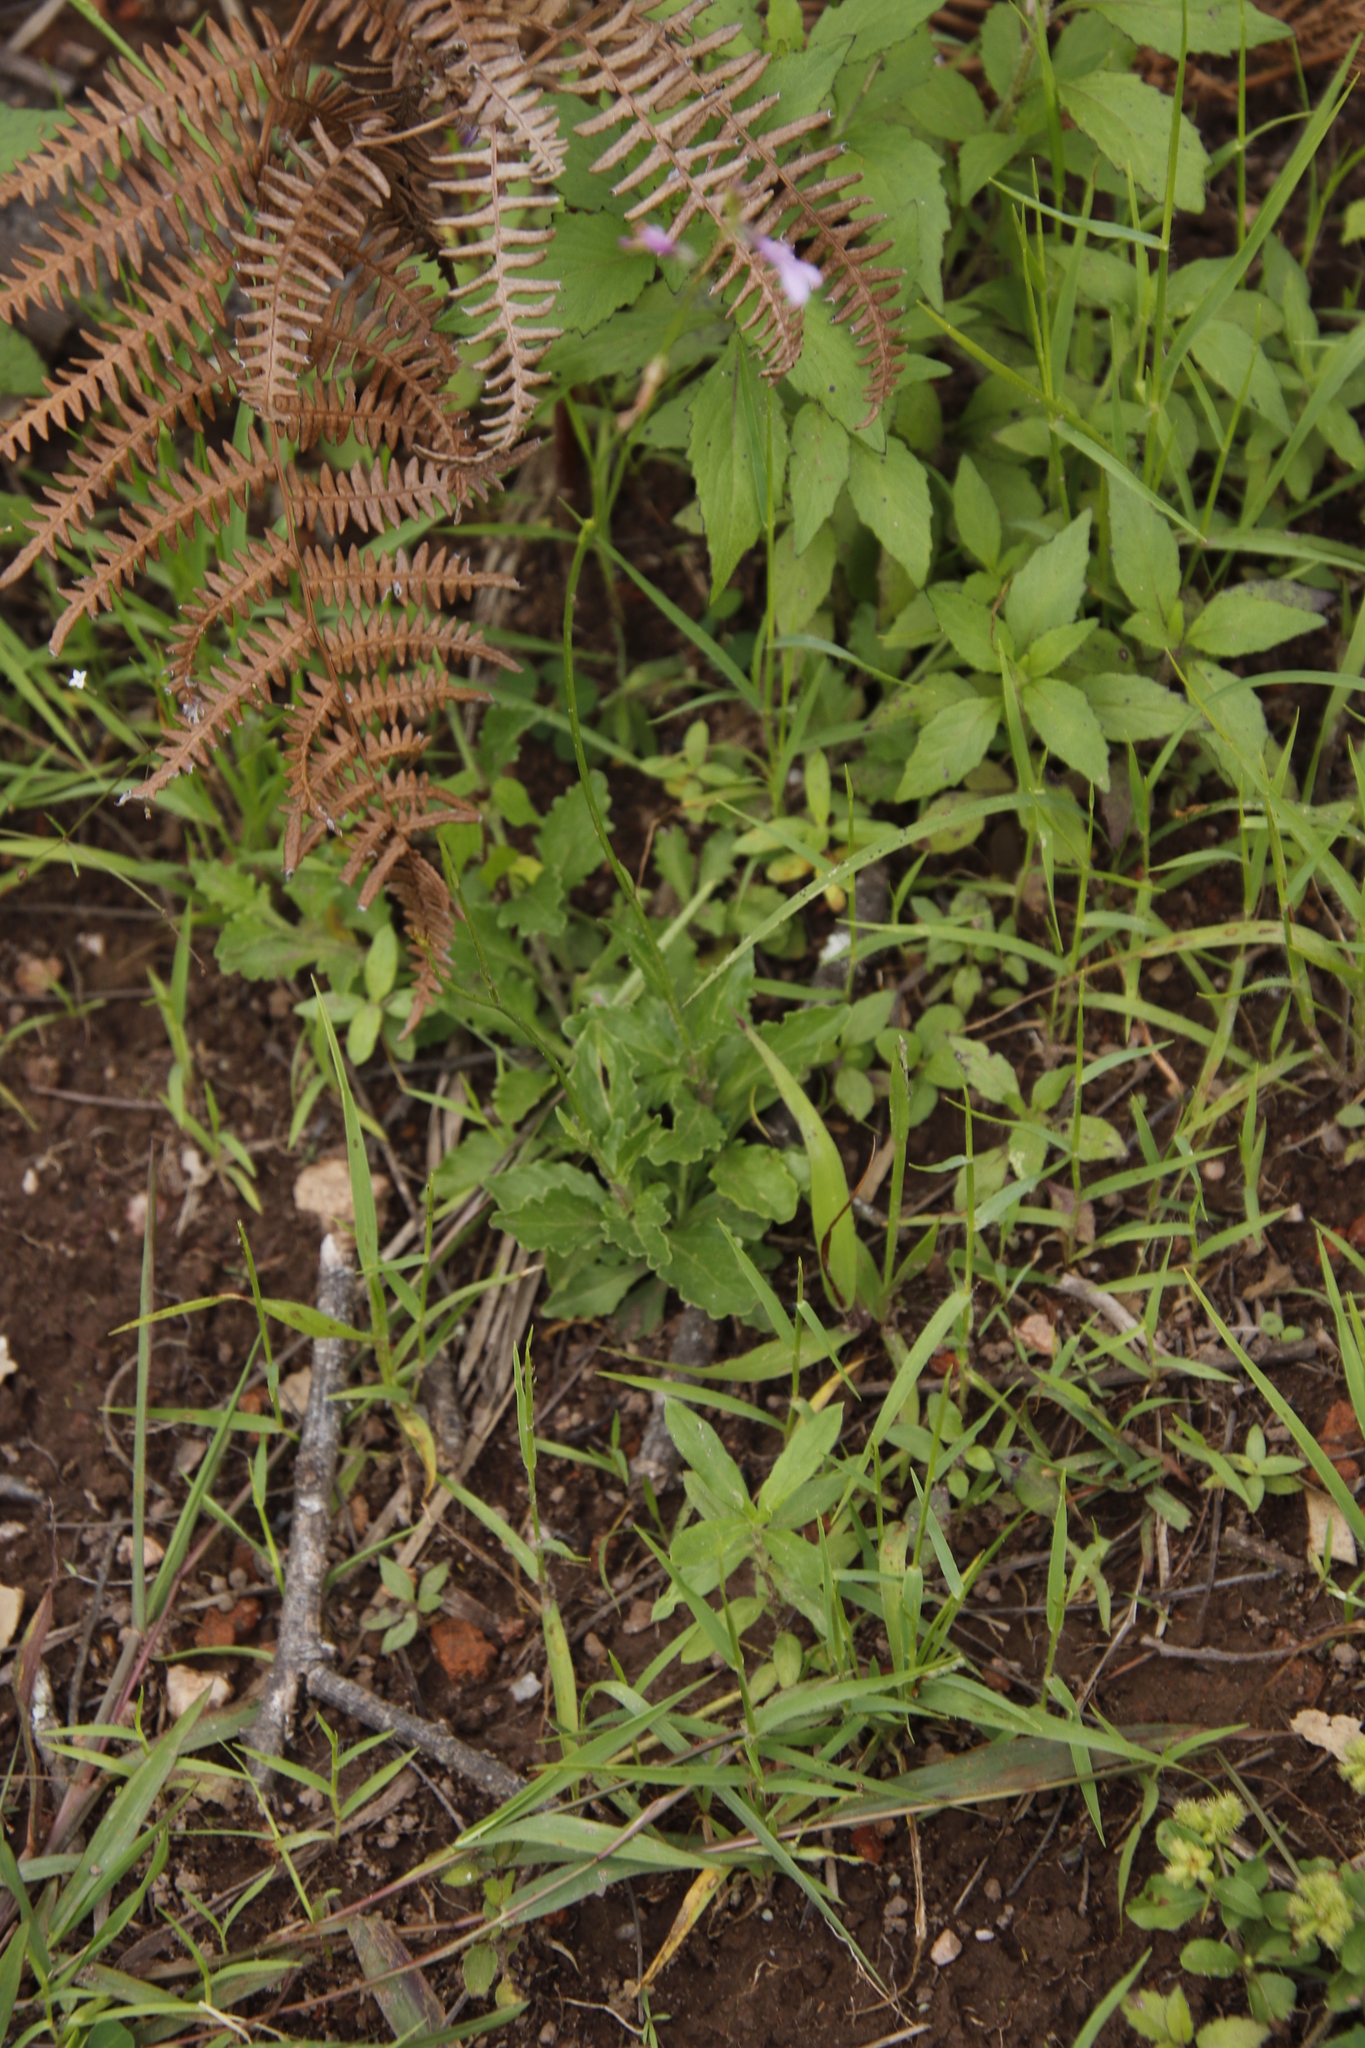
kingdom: Plantae
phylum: Tracheophyta
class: Magnoliopsida
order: Asterales
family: Campanulaceae
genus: Lobelia
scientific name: Lobelia goetzei
